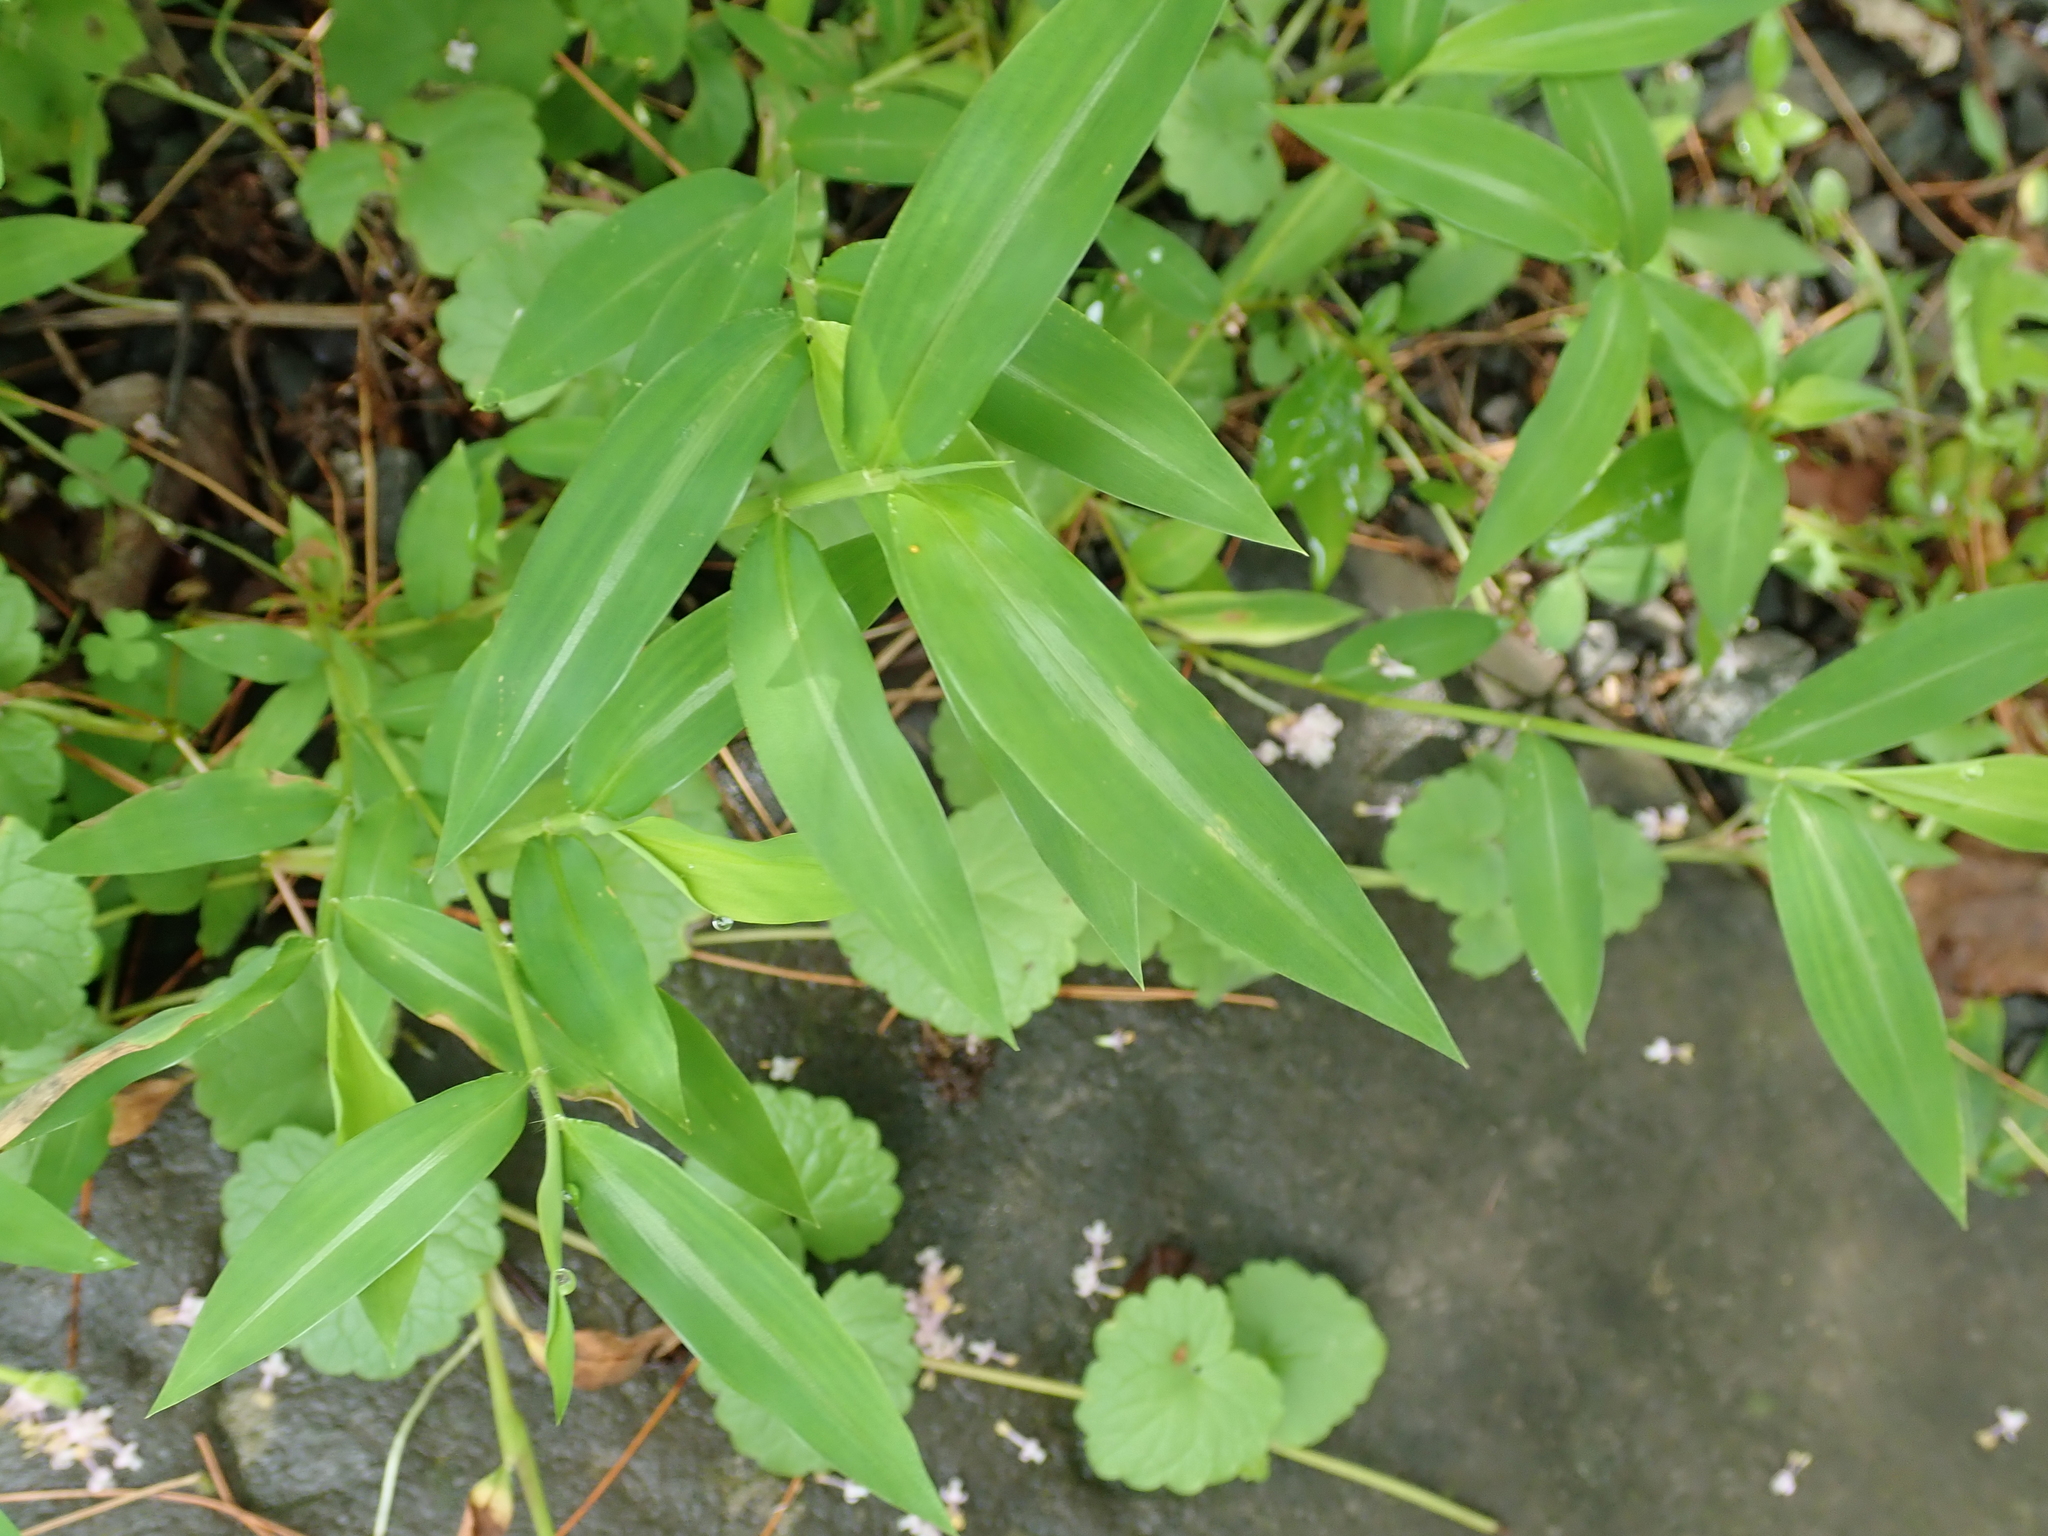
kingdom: Plantae
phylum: Tracheophyta
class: Liliopsida
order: Poales
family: Poaceae
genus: Microstegium
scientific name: Microstegium vimineum
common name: Japanese stiltgrass
